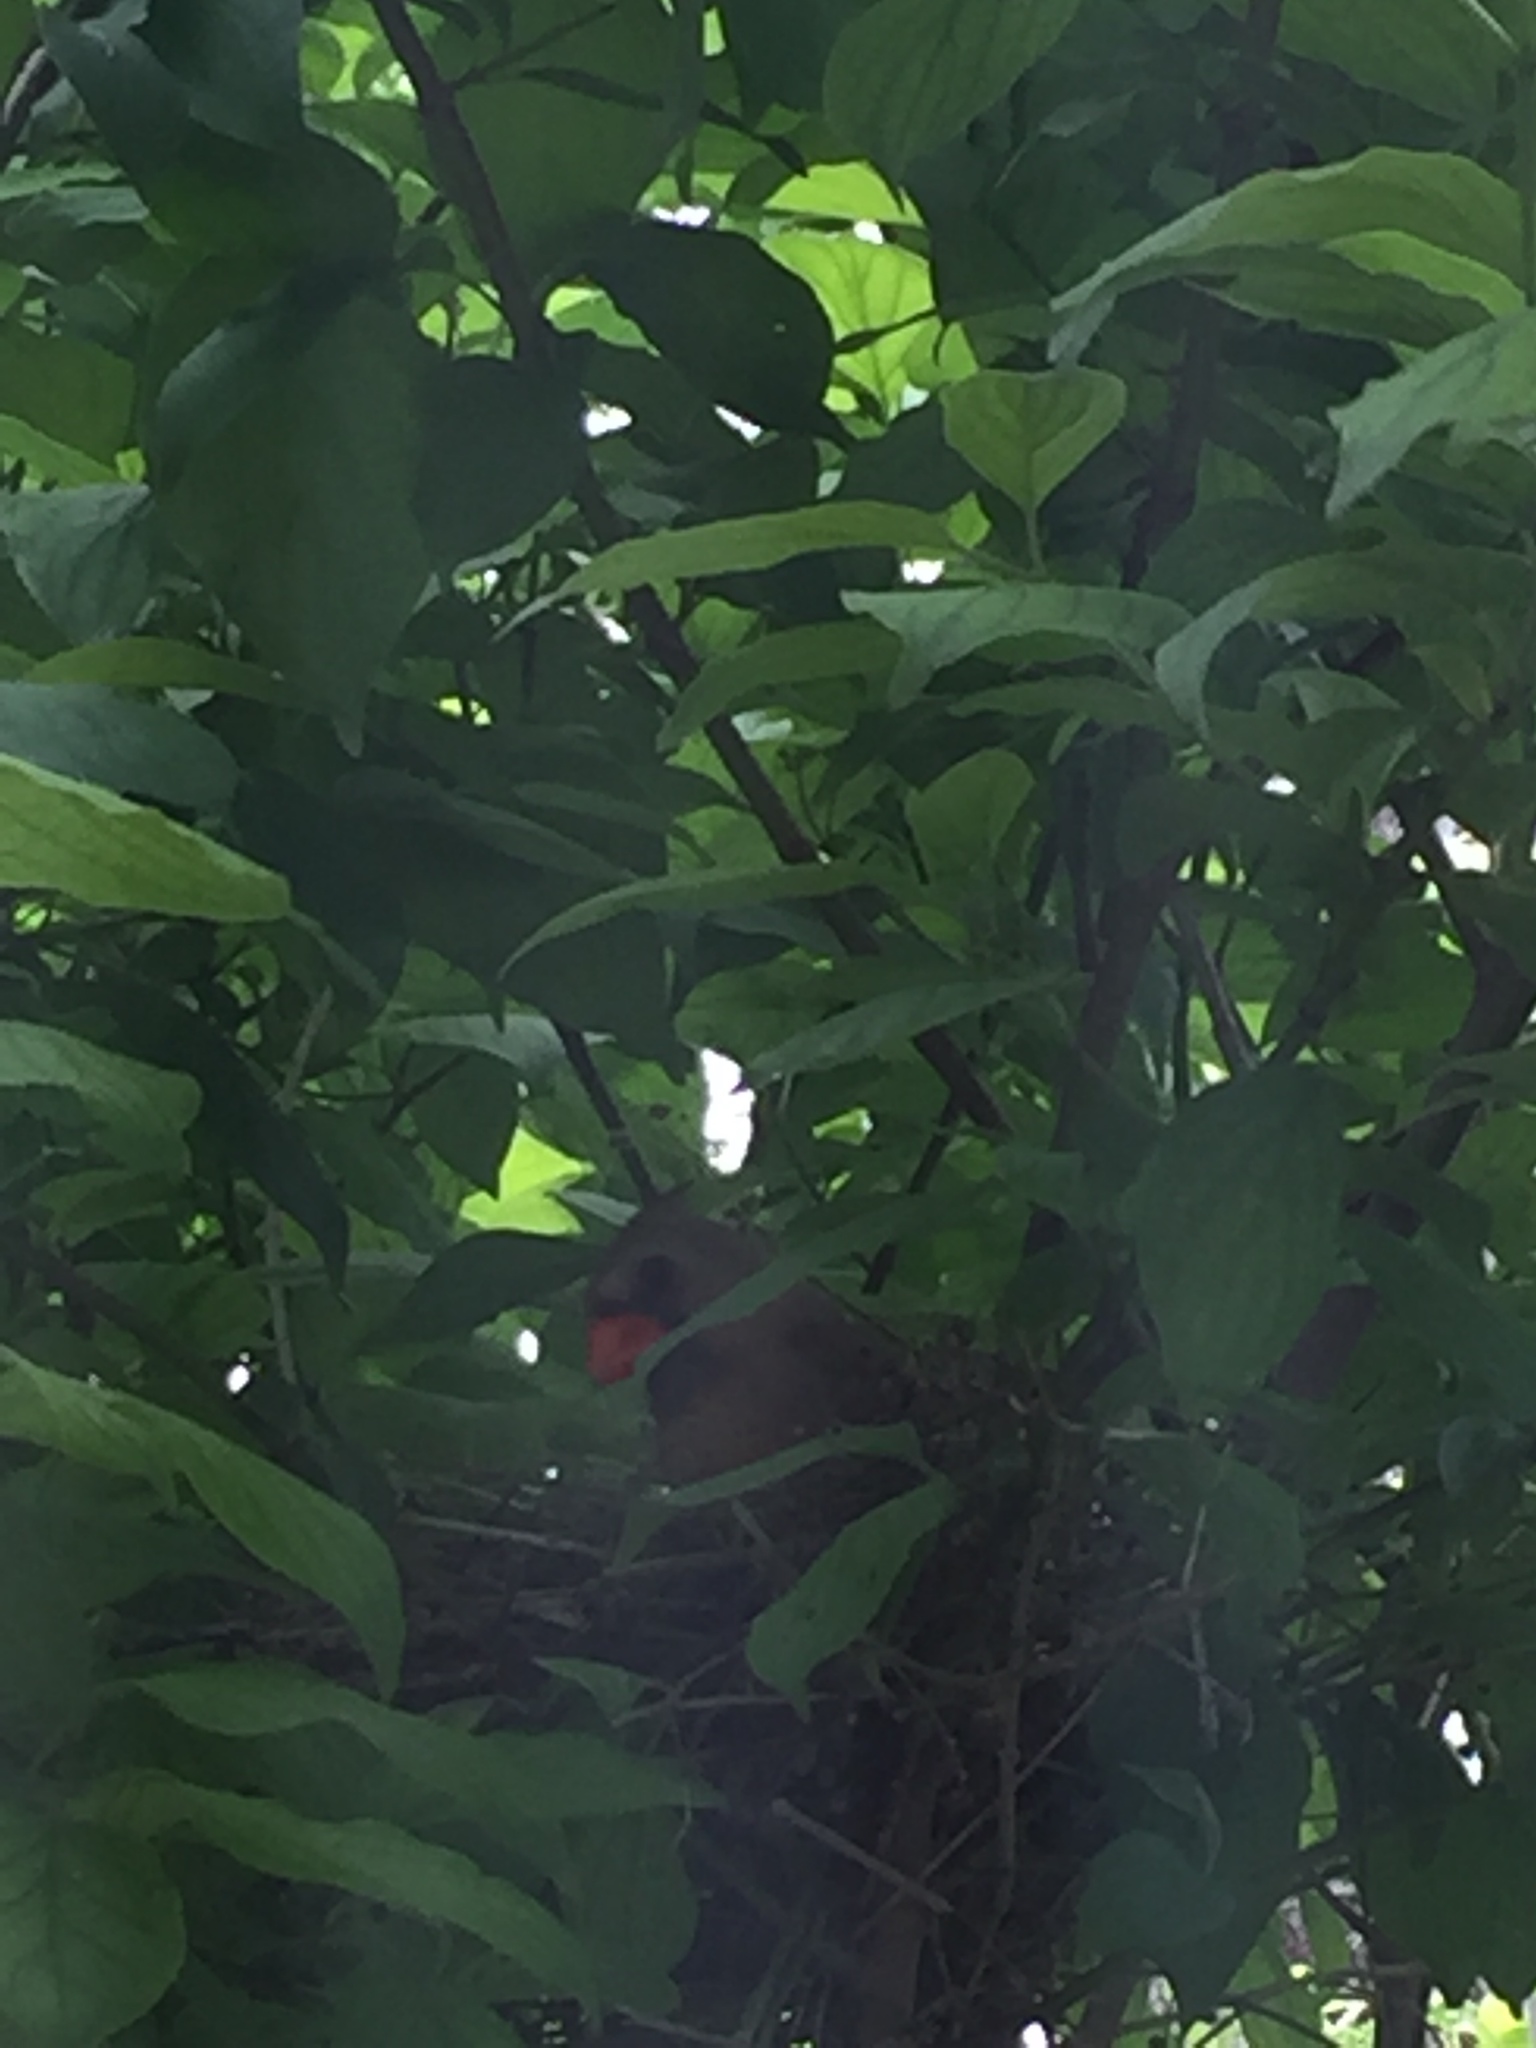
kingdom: Animalia
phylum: Chordata
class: Aves
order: Passeriformes
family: Cardinalidae
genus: Cardinalis
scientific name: Cardinalis cardinalis
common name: Northern cardinal
